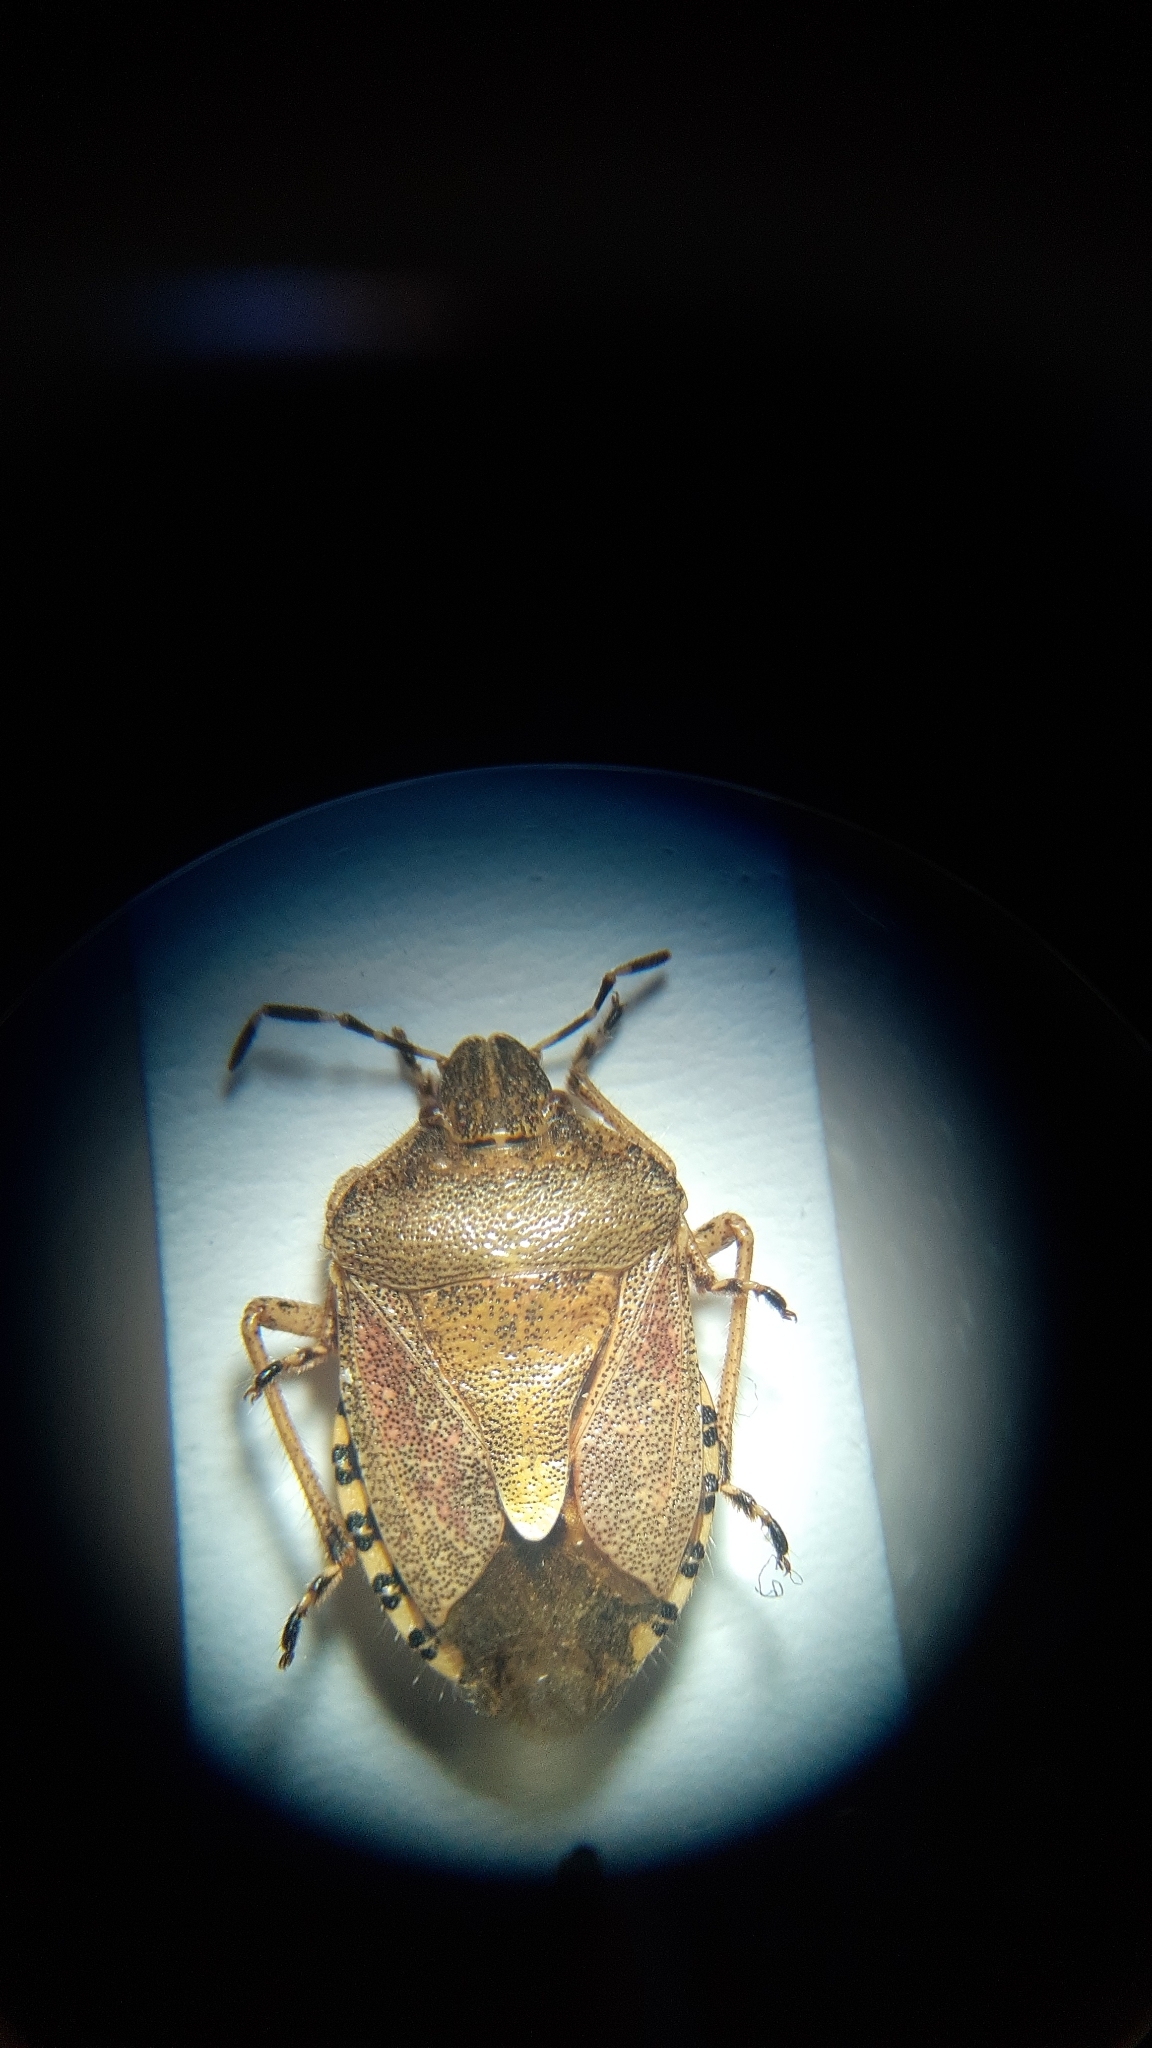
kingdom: Animalia
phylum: Arthropoda
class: Insecta
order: Hemiptera
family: Pentatomidae
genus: Dolycoris
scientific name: Dolycoris baccarum
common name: Sloe bug
